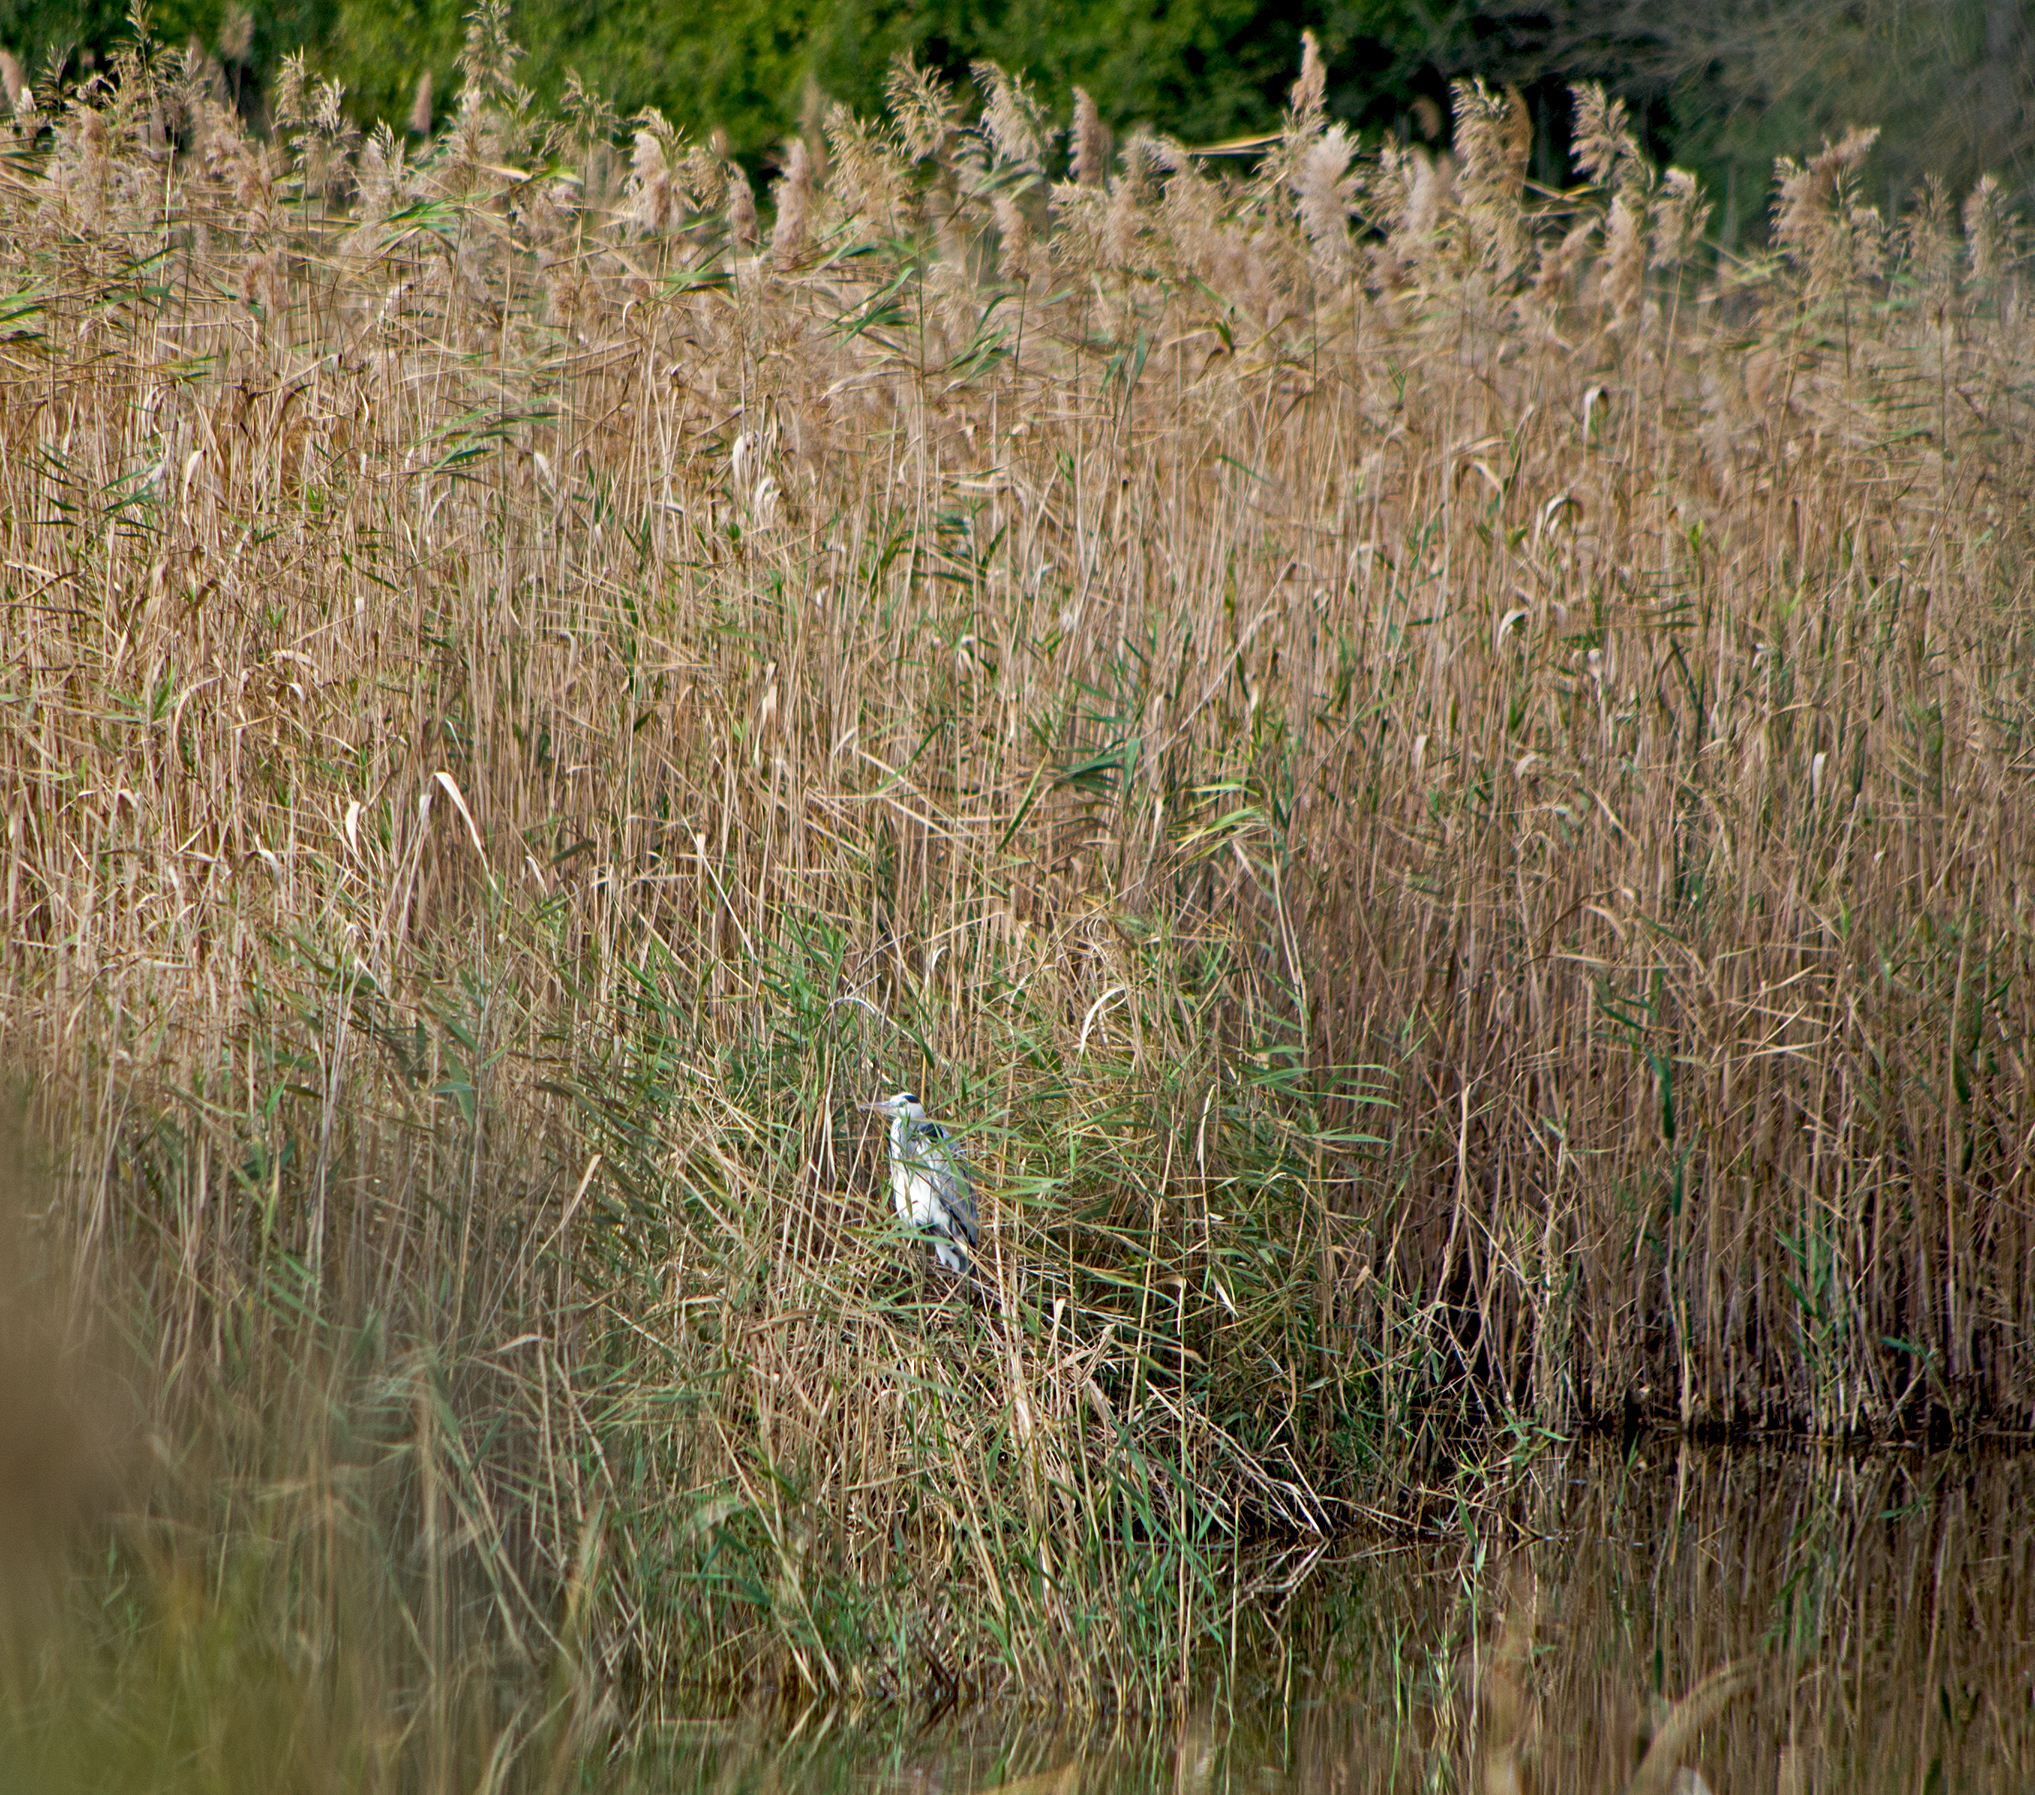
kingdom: Animalia
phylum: Chordata
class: Aves
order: Pelecaniformes
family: Ardeidae
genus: Ardea
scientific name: Ardea cinerea
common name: Grey heron
